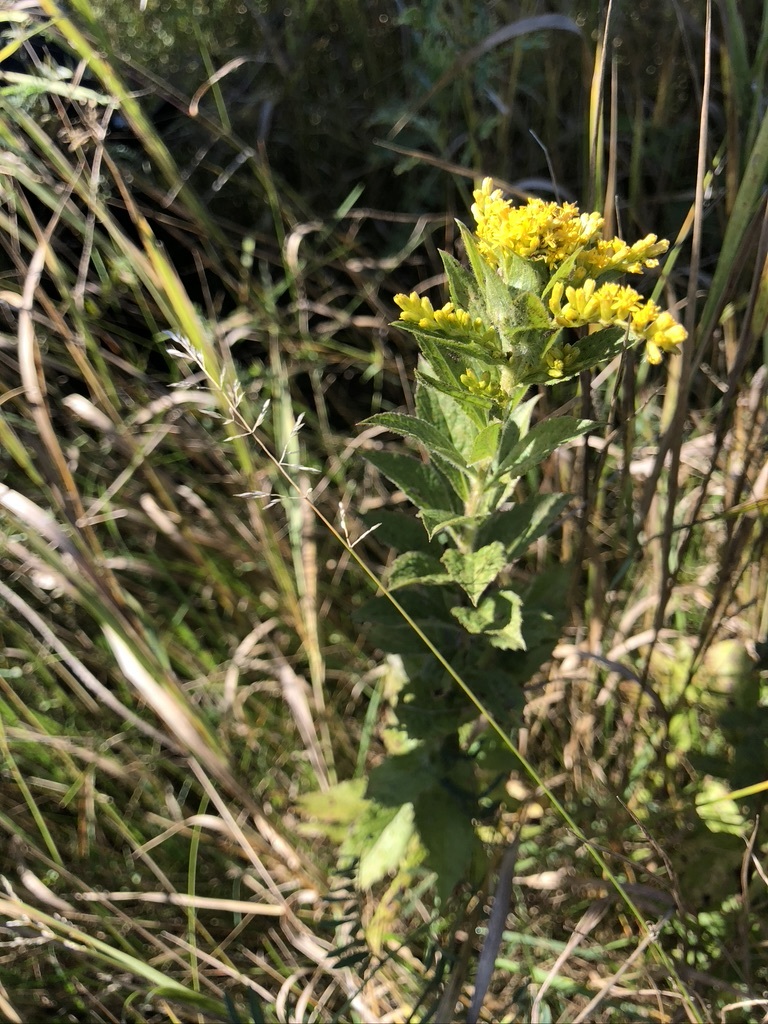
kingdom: Plantae
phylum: Tracheophyta
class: Magnoliopsida
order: Asterales
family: Asteraceae
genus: Solidago
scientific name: Solidago rugosa
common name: Rough-stemmed goldenrod
